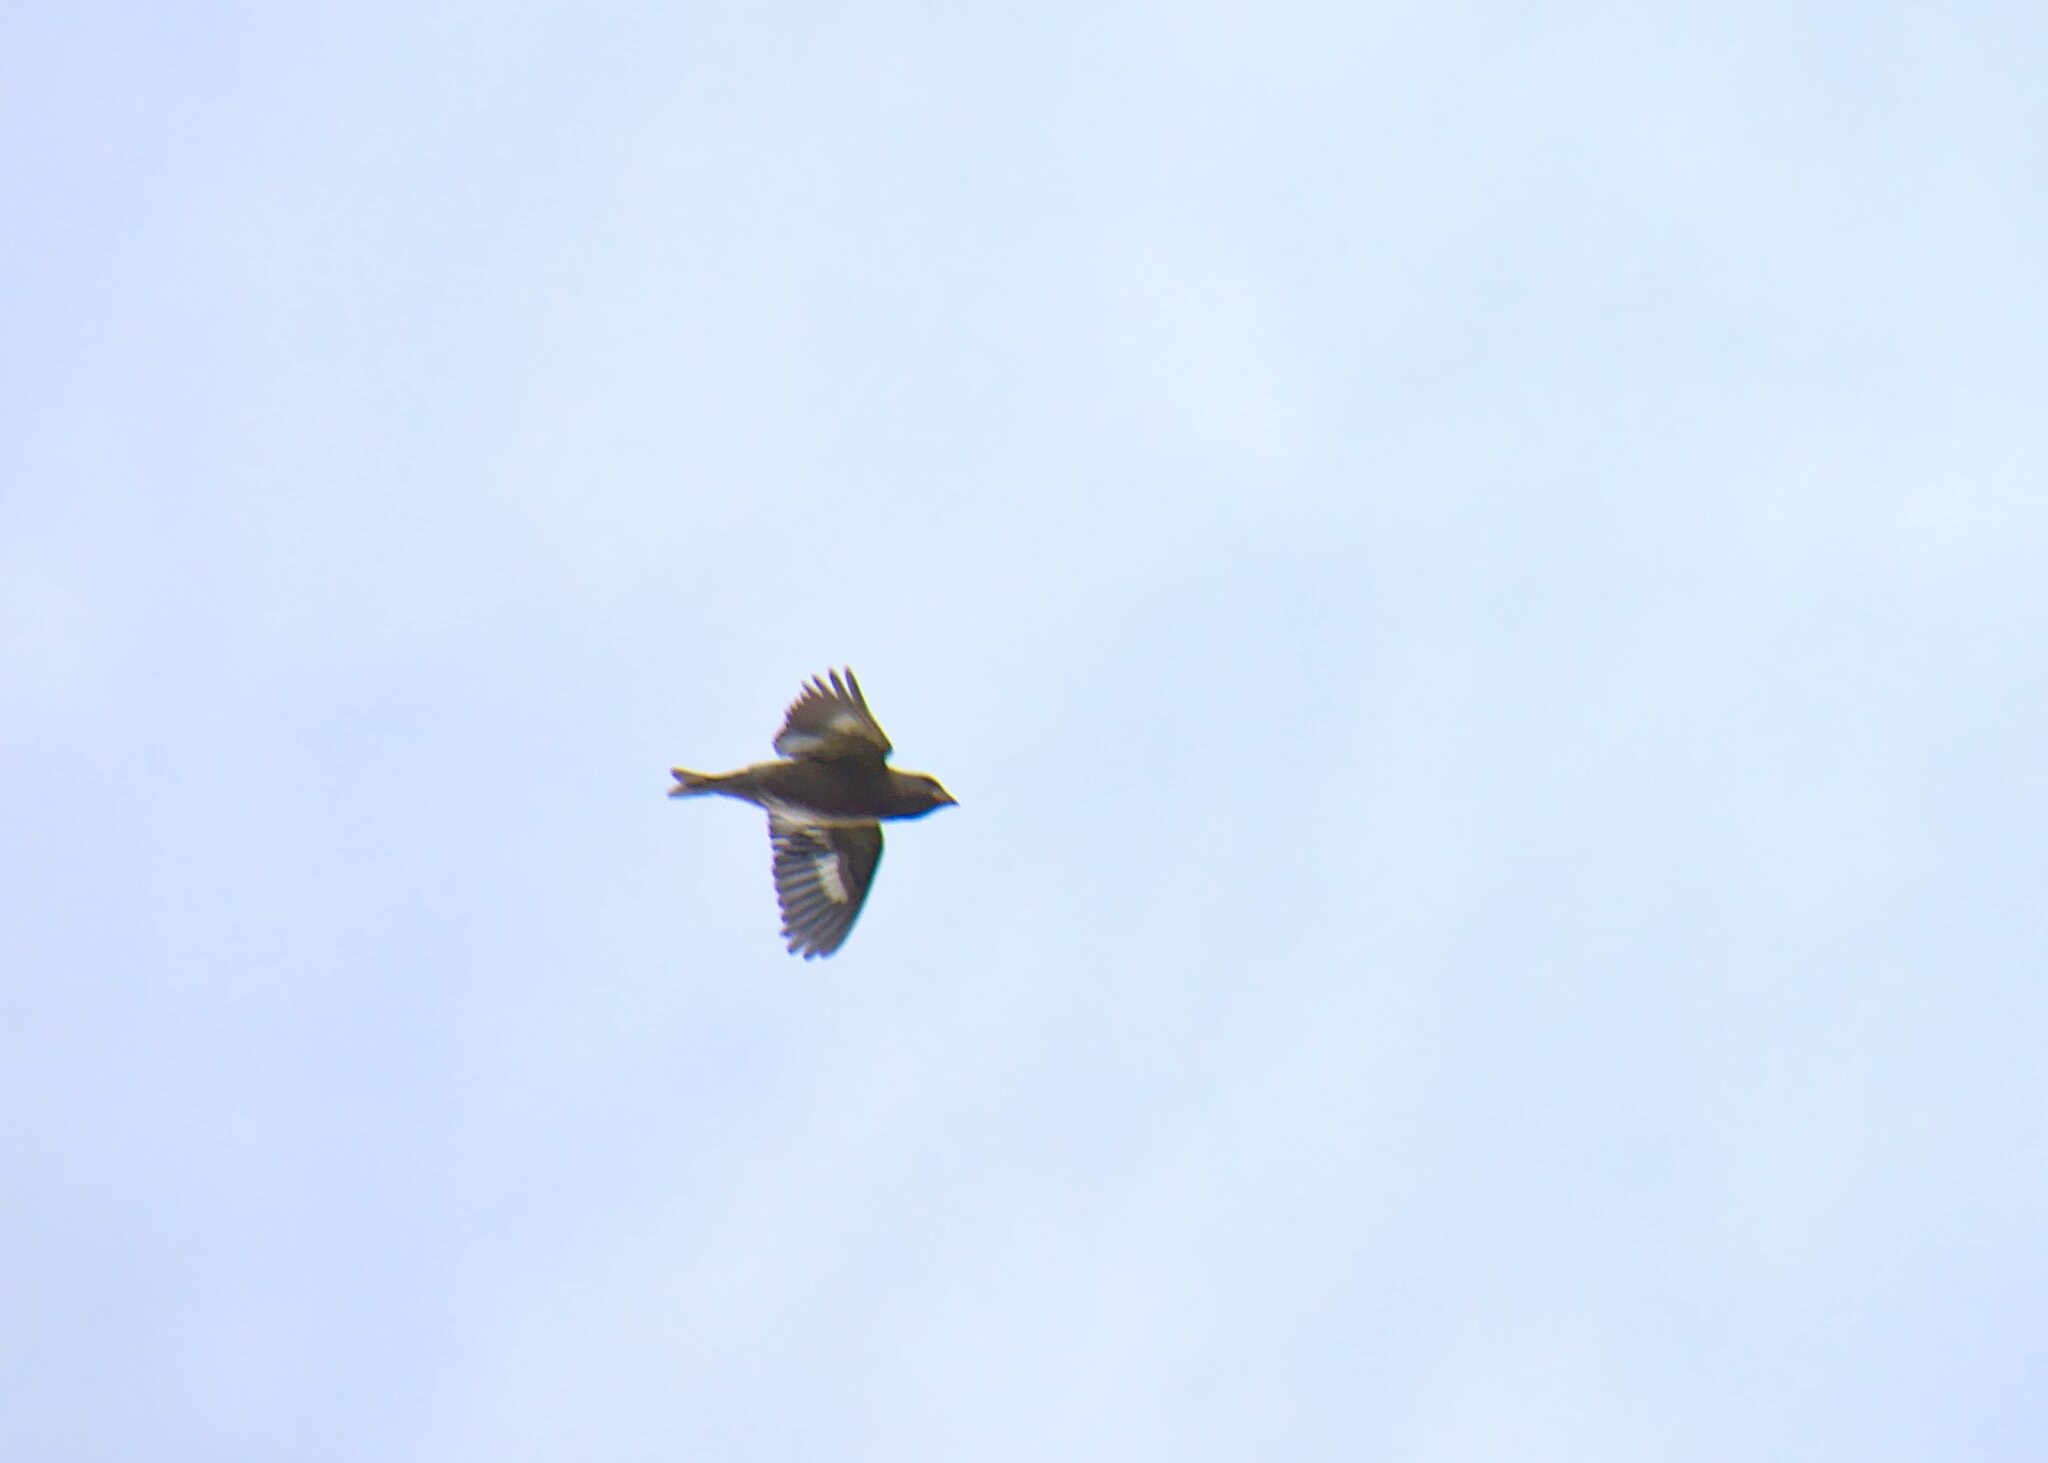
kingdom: Animalia
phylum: Chordata
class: Aves
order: Passeriformes
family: Fringillidae
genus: Loxia
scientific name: Loxia leucoptera
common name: Two-barred crossbill
